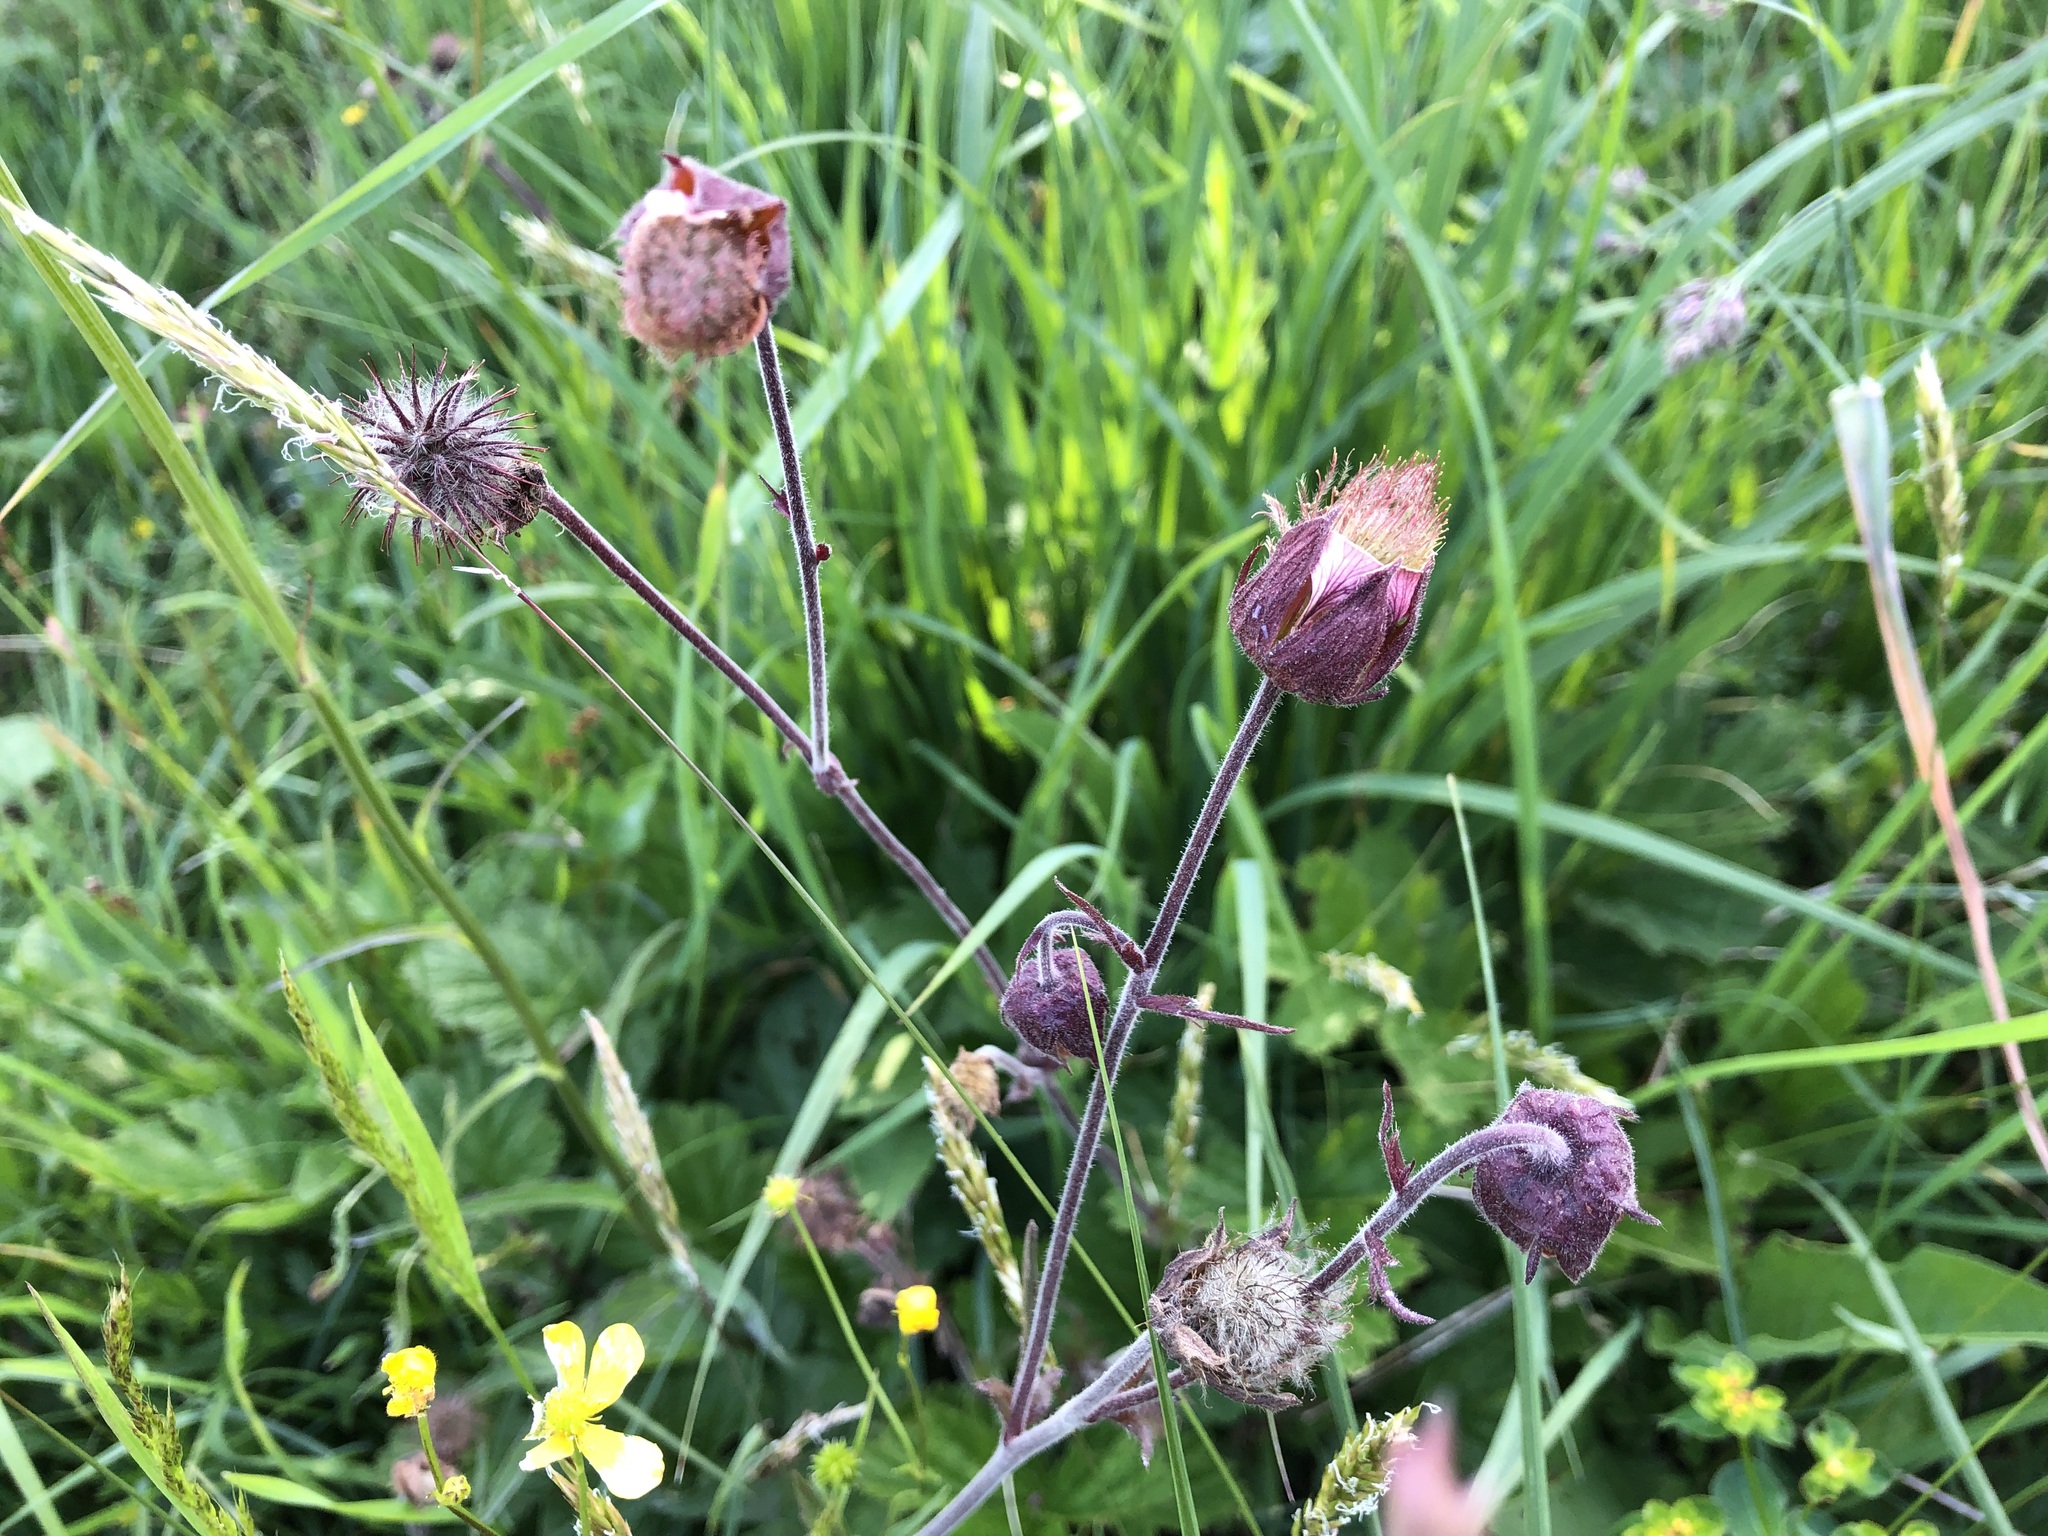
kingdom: Plantae
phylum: Tracheophyta
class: Magnoliopsida
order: Rosales
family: Rosaceae
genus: Geum
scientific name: Geum rivale
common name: Water avens
